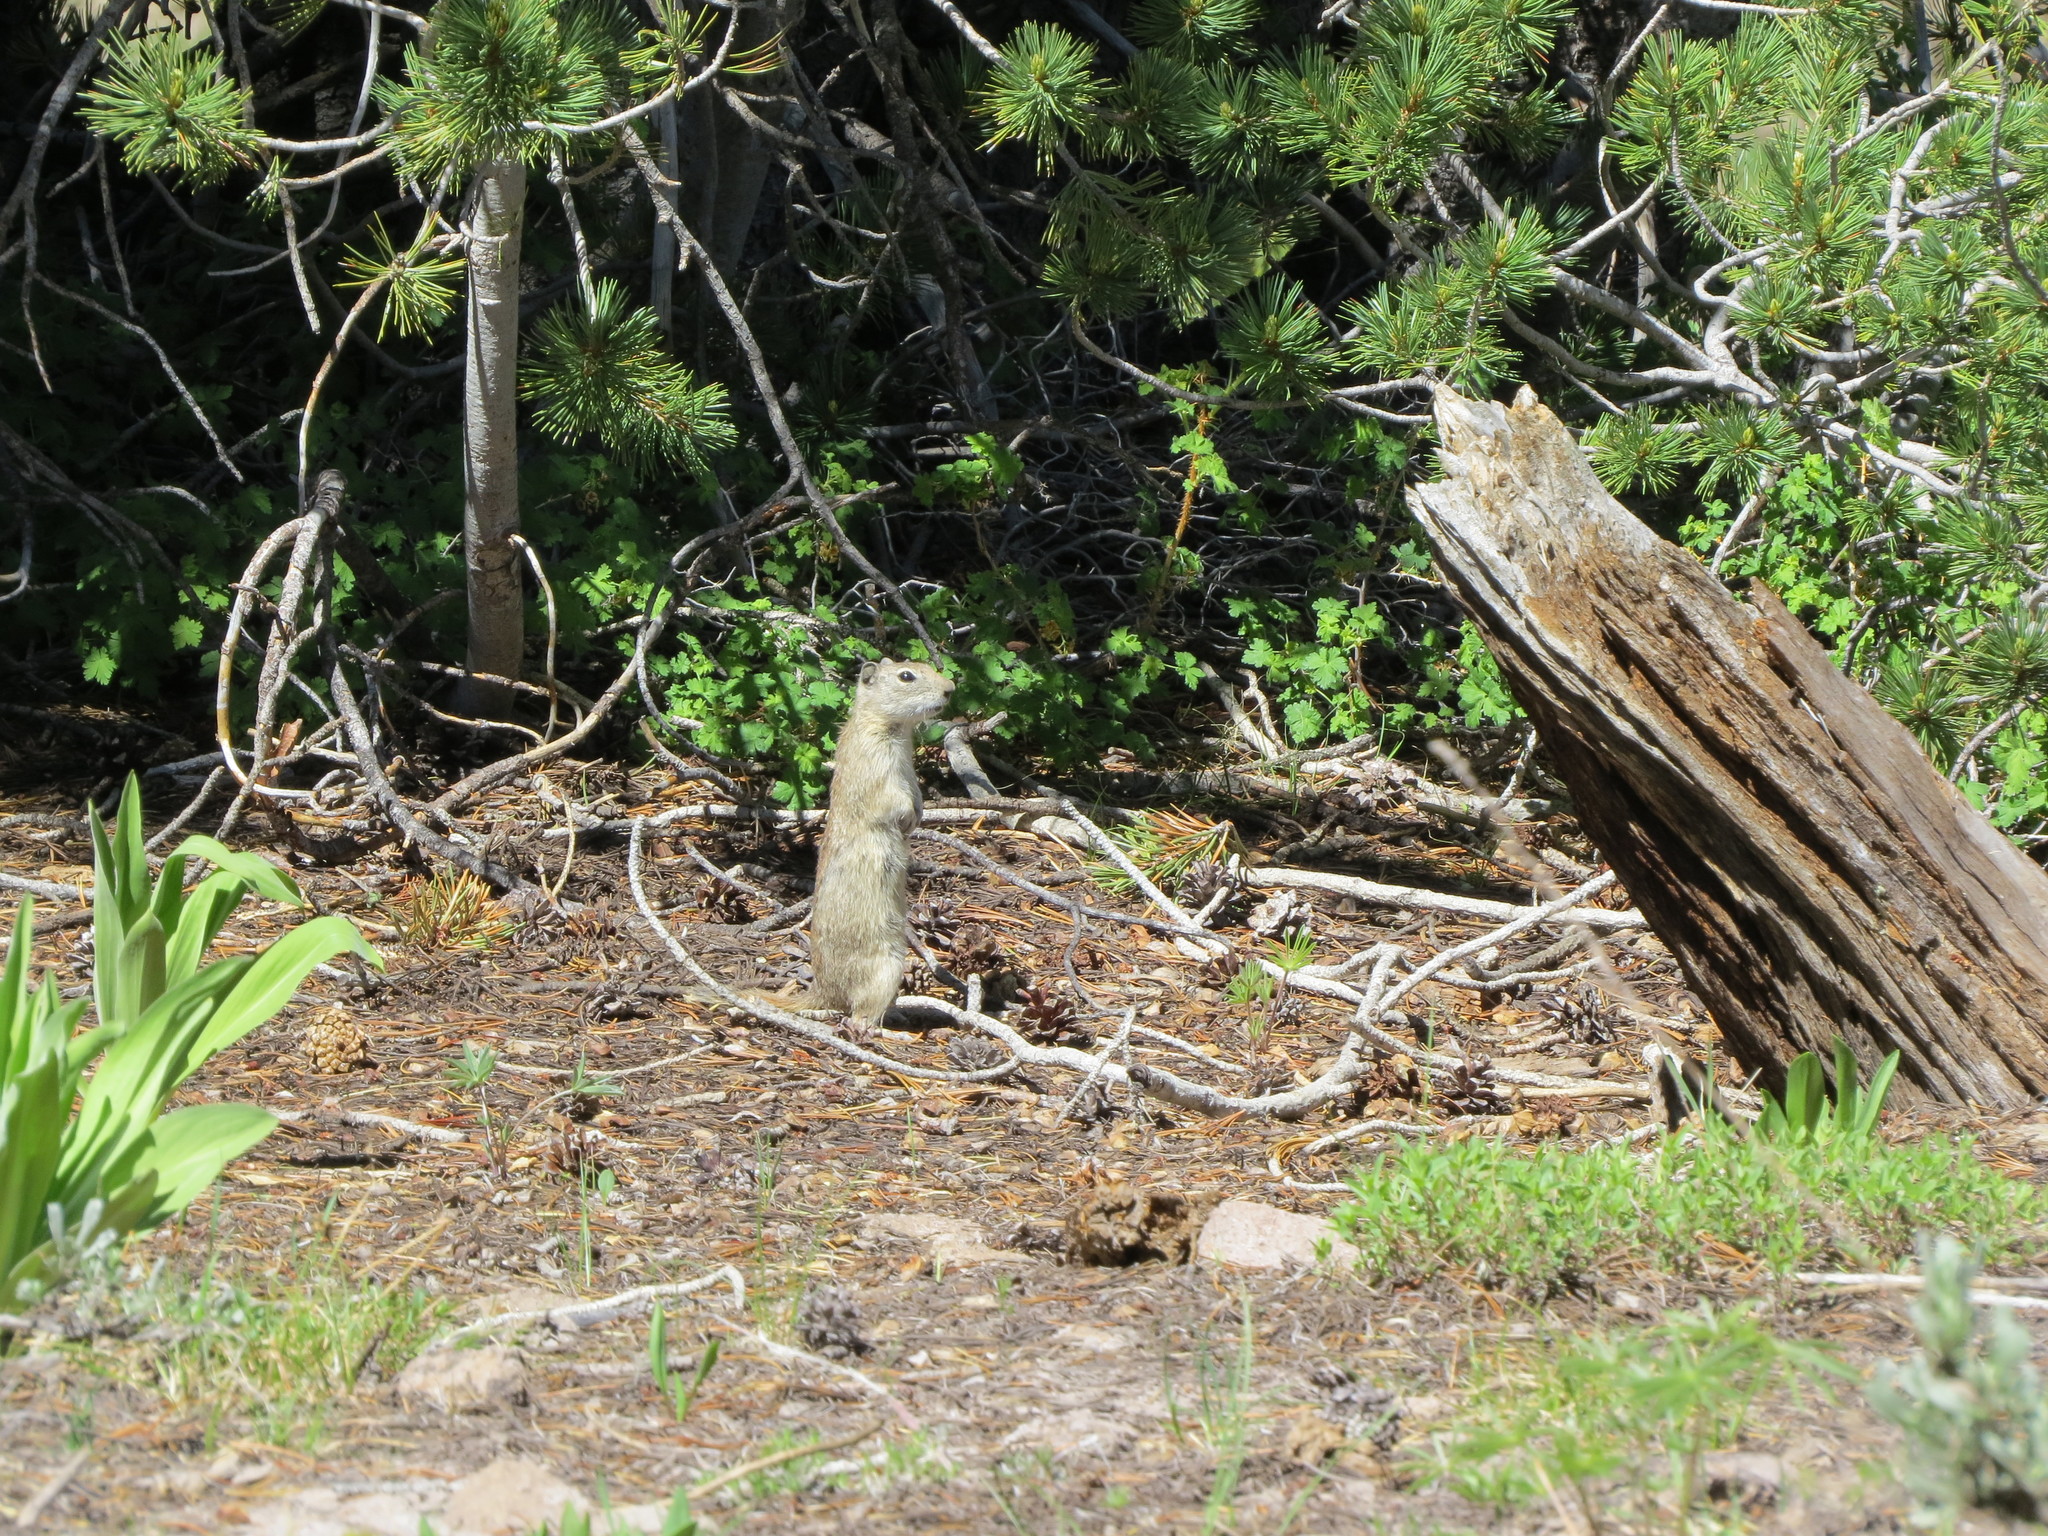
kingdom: Animalia
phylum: Chordata
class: Mammalia
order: Rodentia
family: Sciuridae
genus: Urocitellus
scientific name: Urocitellus beldingi
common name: Belding's ground squirrel
